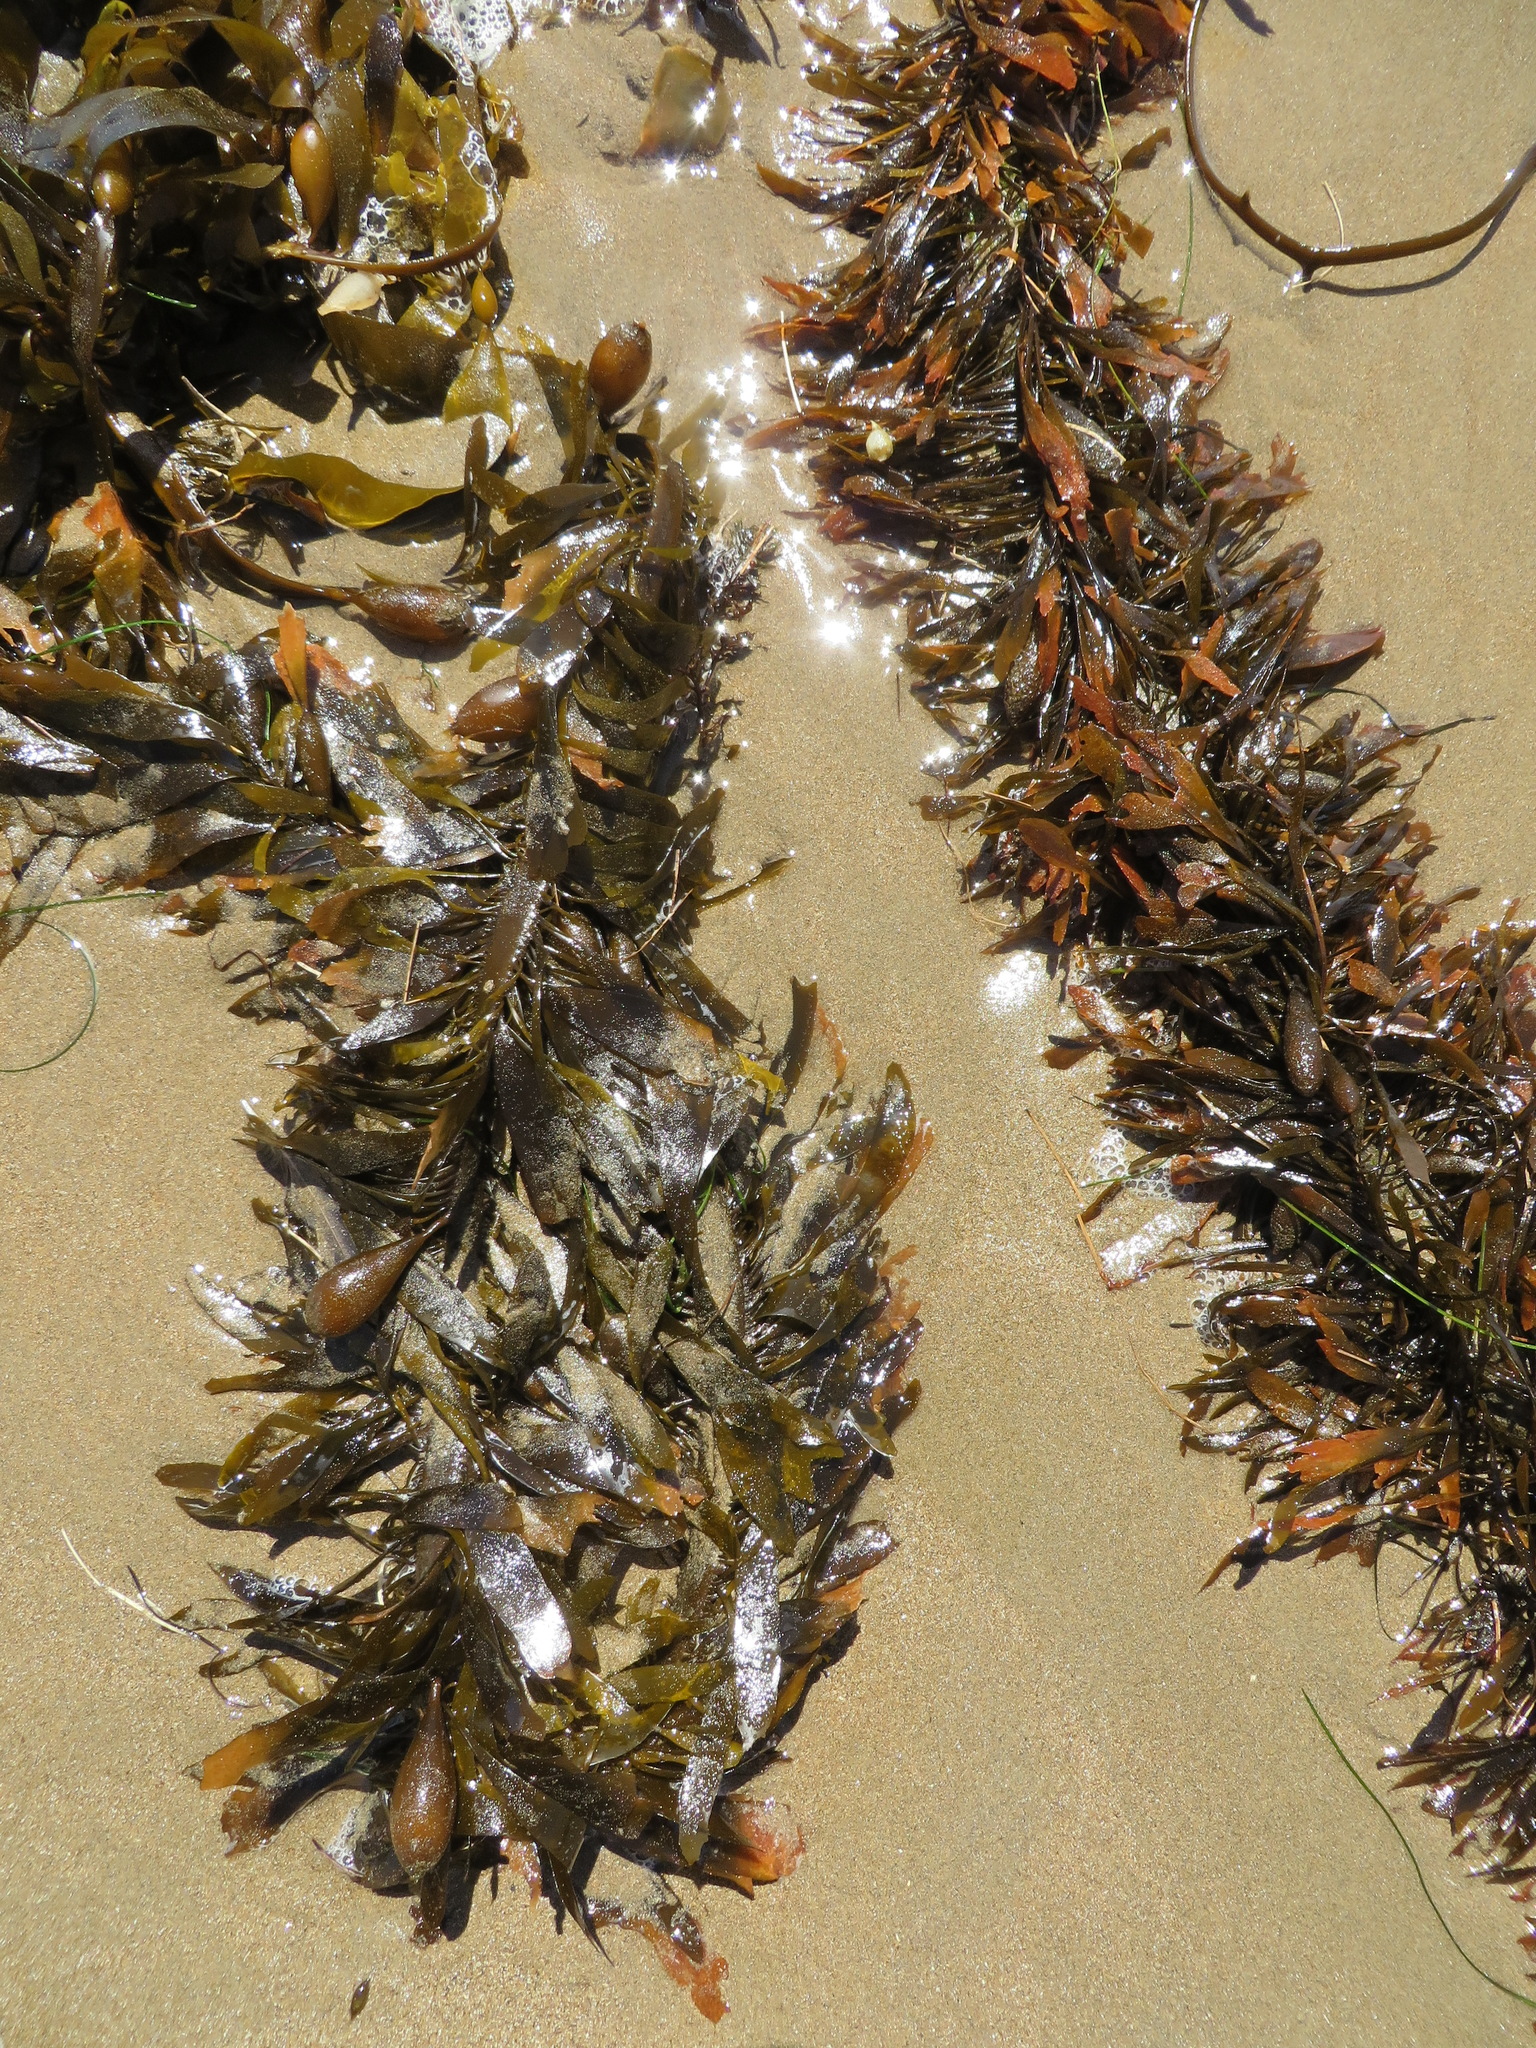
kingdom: Chromista
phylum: Ochrophyta
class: Phaeophyceae
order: Laminariales
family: Lessoniaceae
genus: Egregia
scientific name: Egregia menziesii
